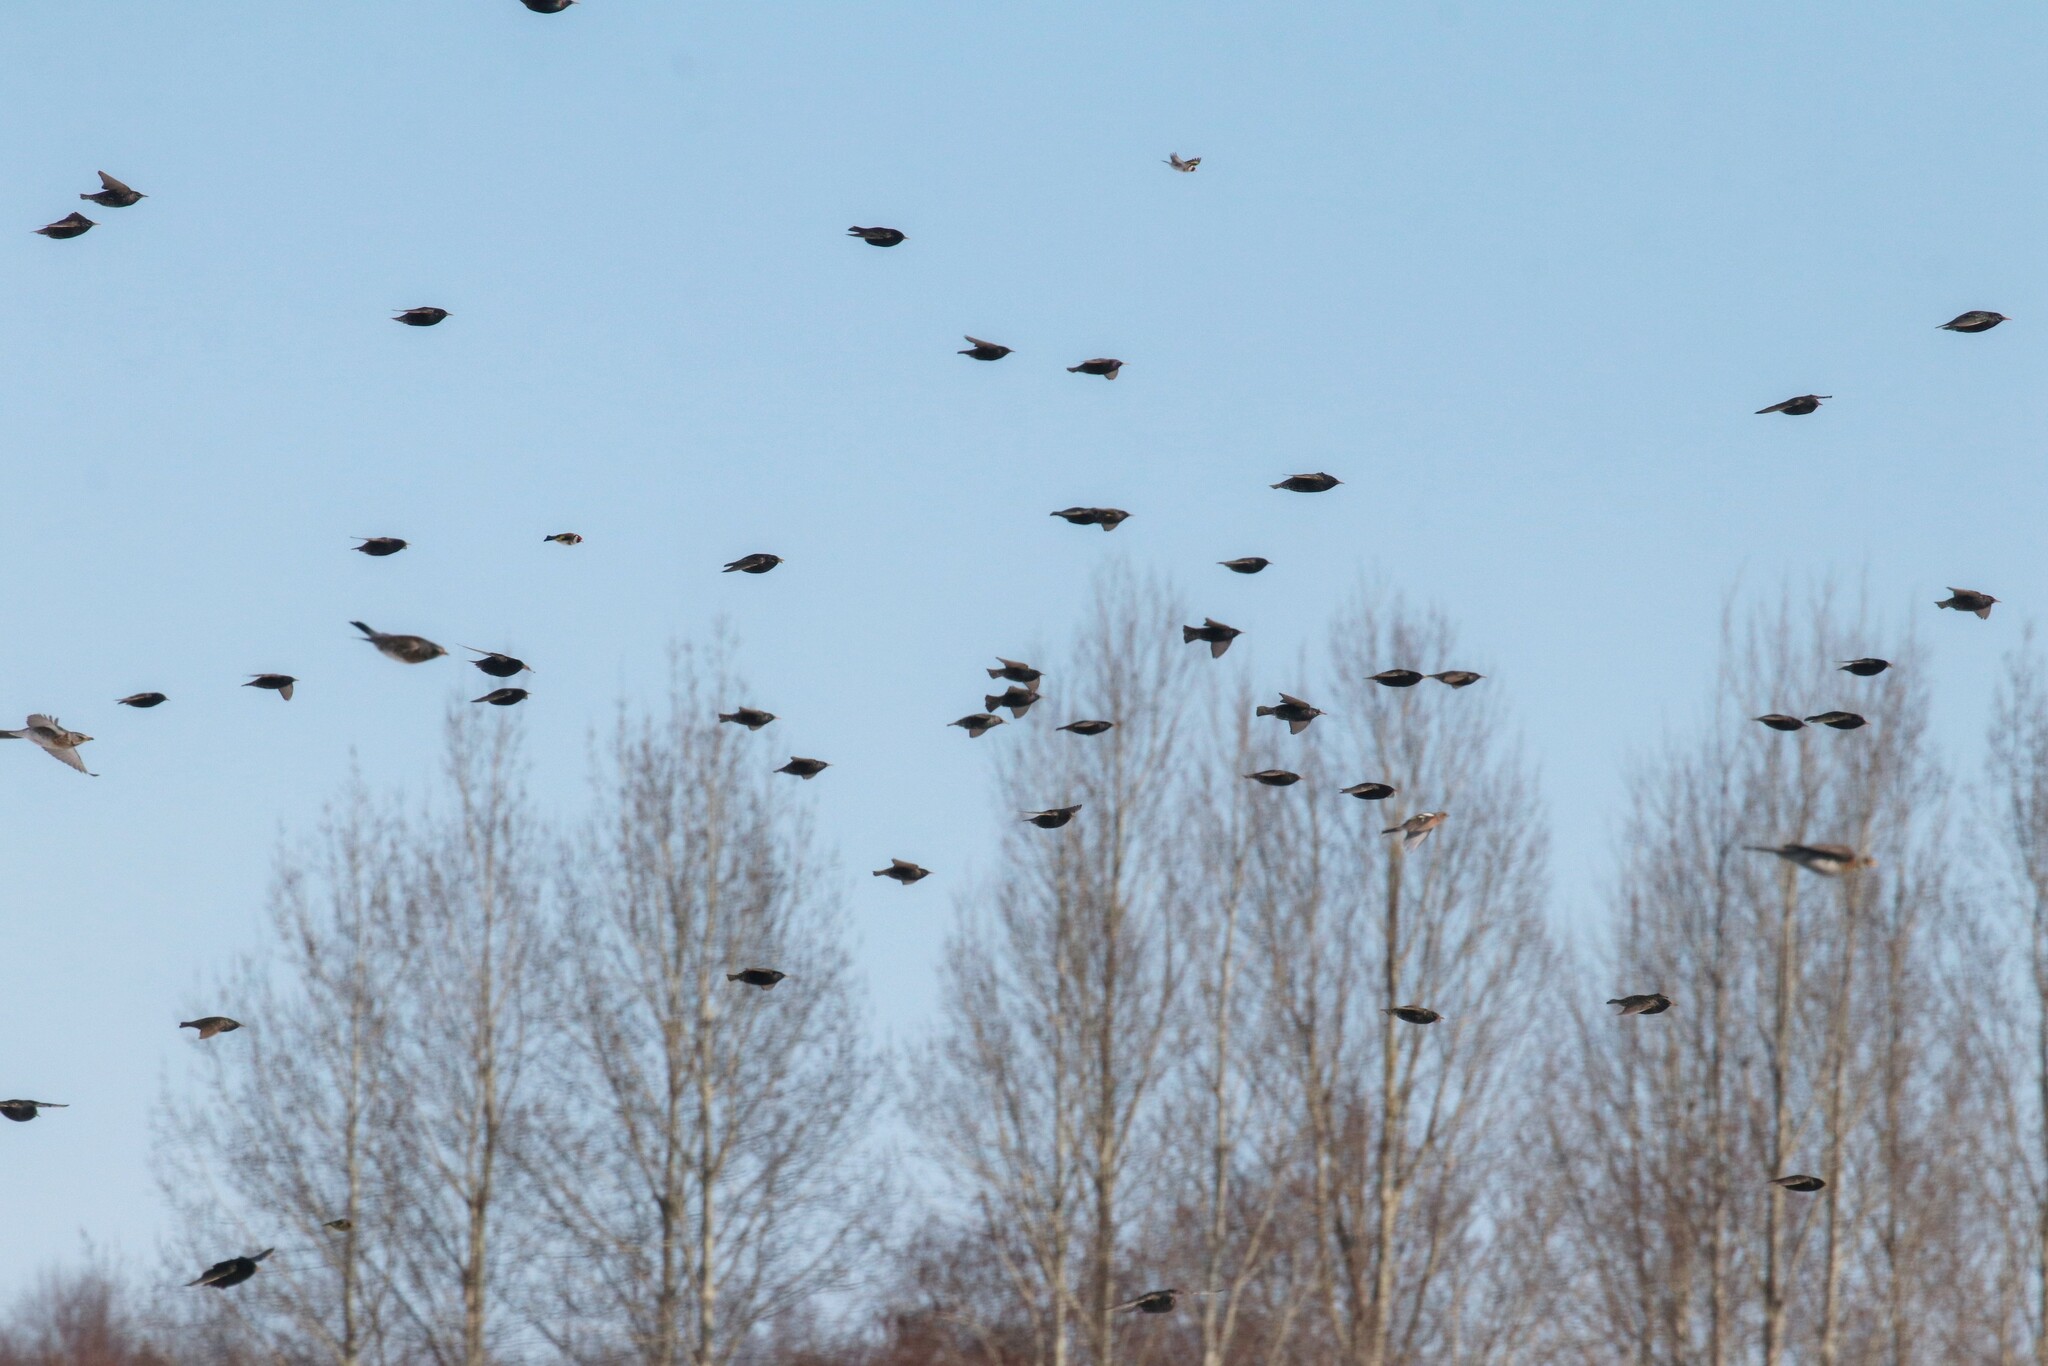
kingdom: Animalia
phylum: Chordata
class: Aves
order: Passeriformes
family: Sturnidae
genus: Sturnus
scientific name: Sturnus vulgaris
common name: Common starling
